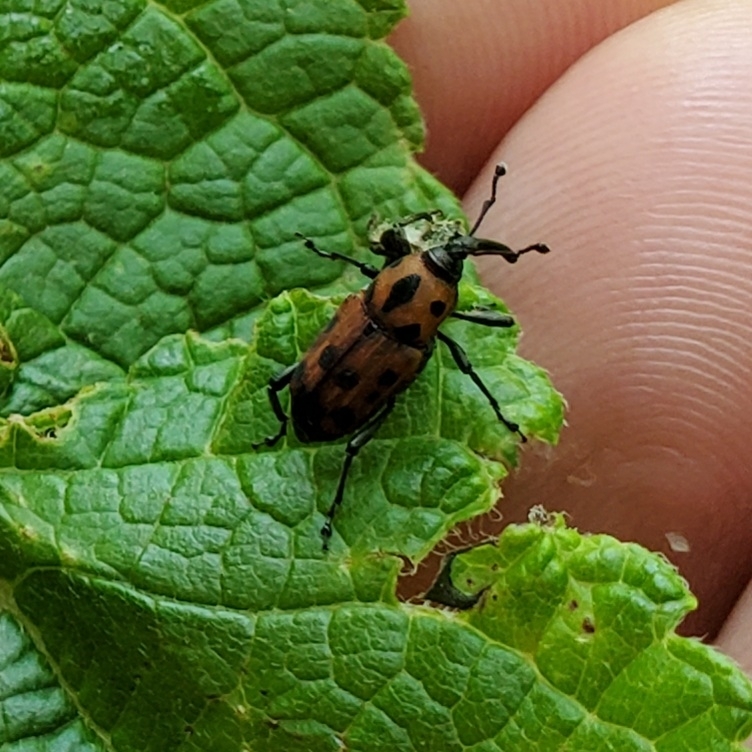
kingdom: Animalia
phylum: Arthropoda
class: Insecta
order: Coleoptera
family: Dryophthoridae
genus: Rhodobaenus
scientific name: Rhodobaenus quinquepunctatus
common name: Cocklebur weevil
